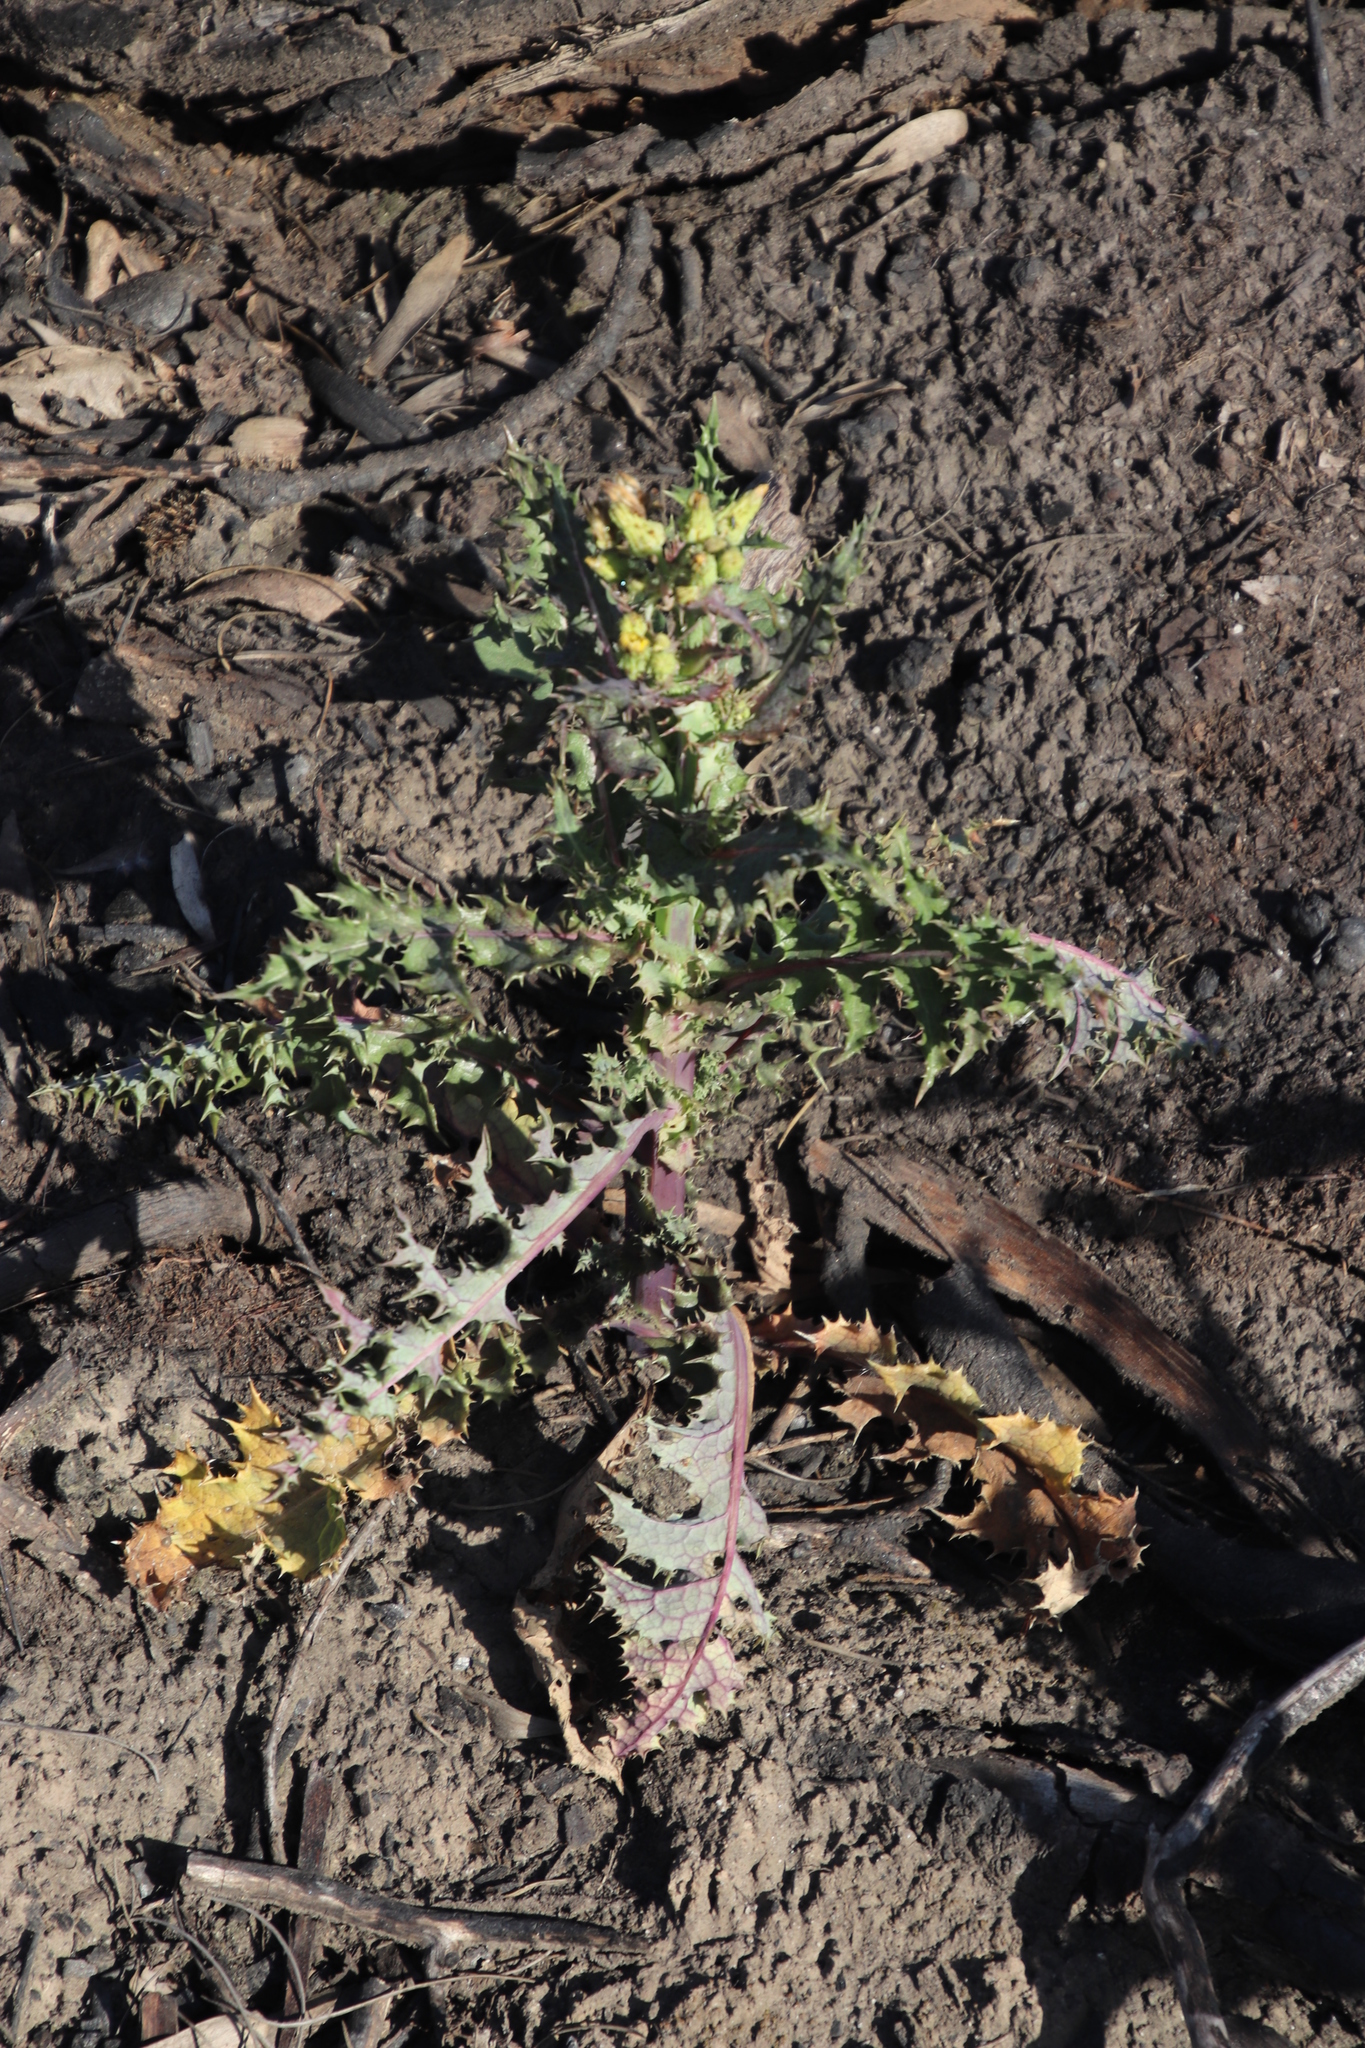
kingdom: Plantae
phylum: Tracheophyta
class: Magnoliopsida
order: Asterales
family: Asteraceae
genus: Sonchus
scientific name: Sonchus asper
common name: Prickly sow-thistle
